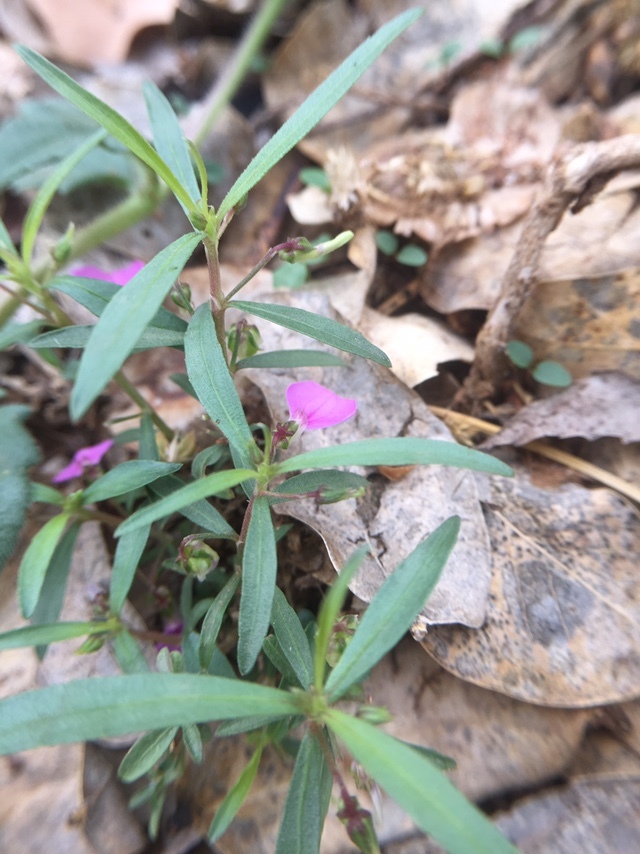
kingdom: Plantae
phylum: Tracheophyta
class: Magnoliopsida
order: Malpighiales
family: Violaceae
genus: Pigea
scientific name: Pigea enneasperma
